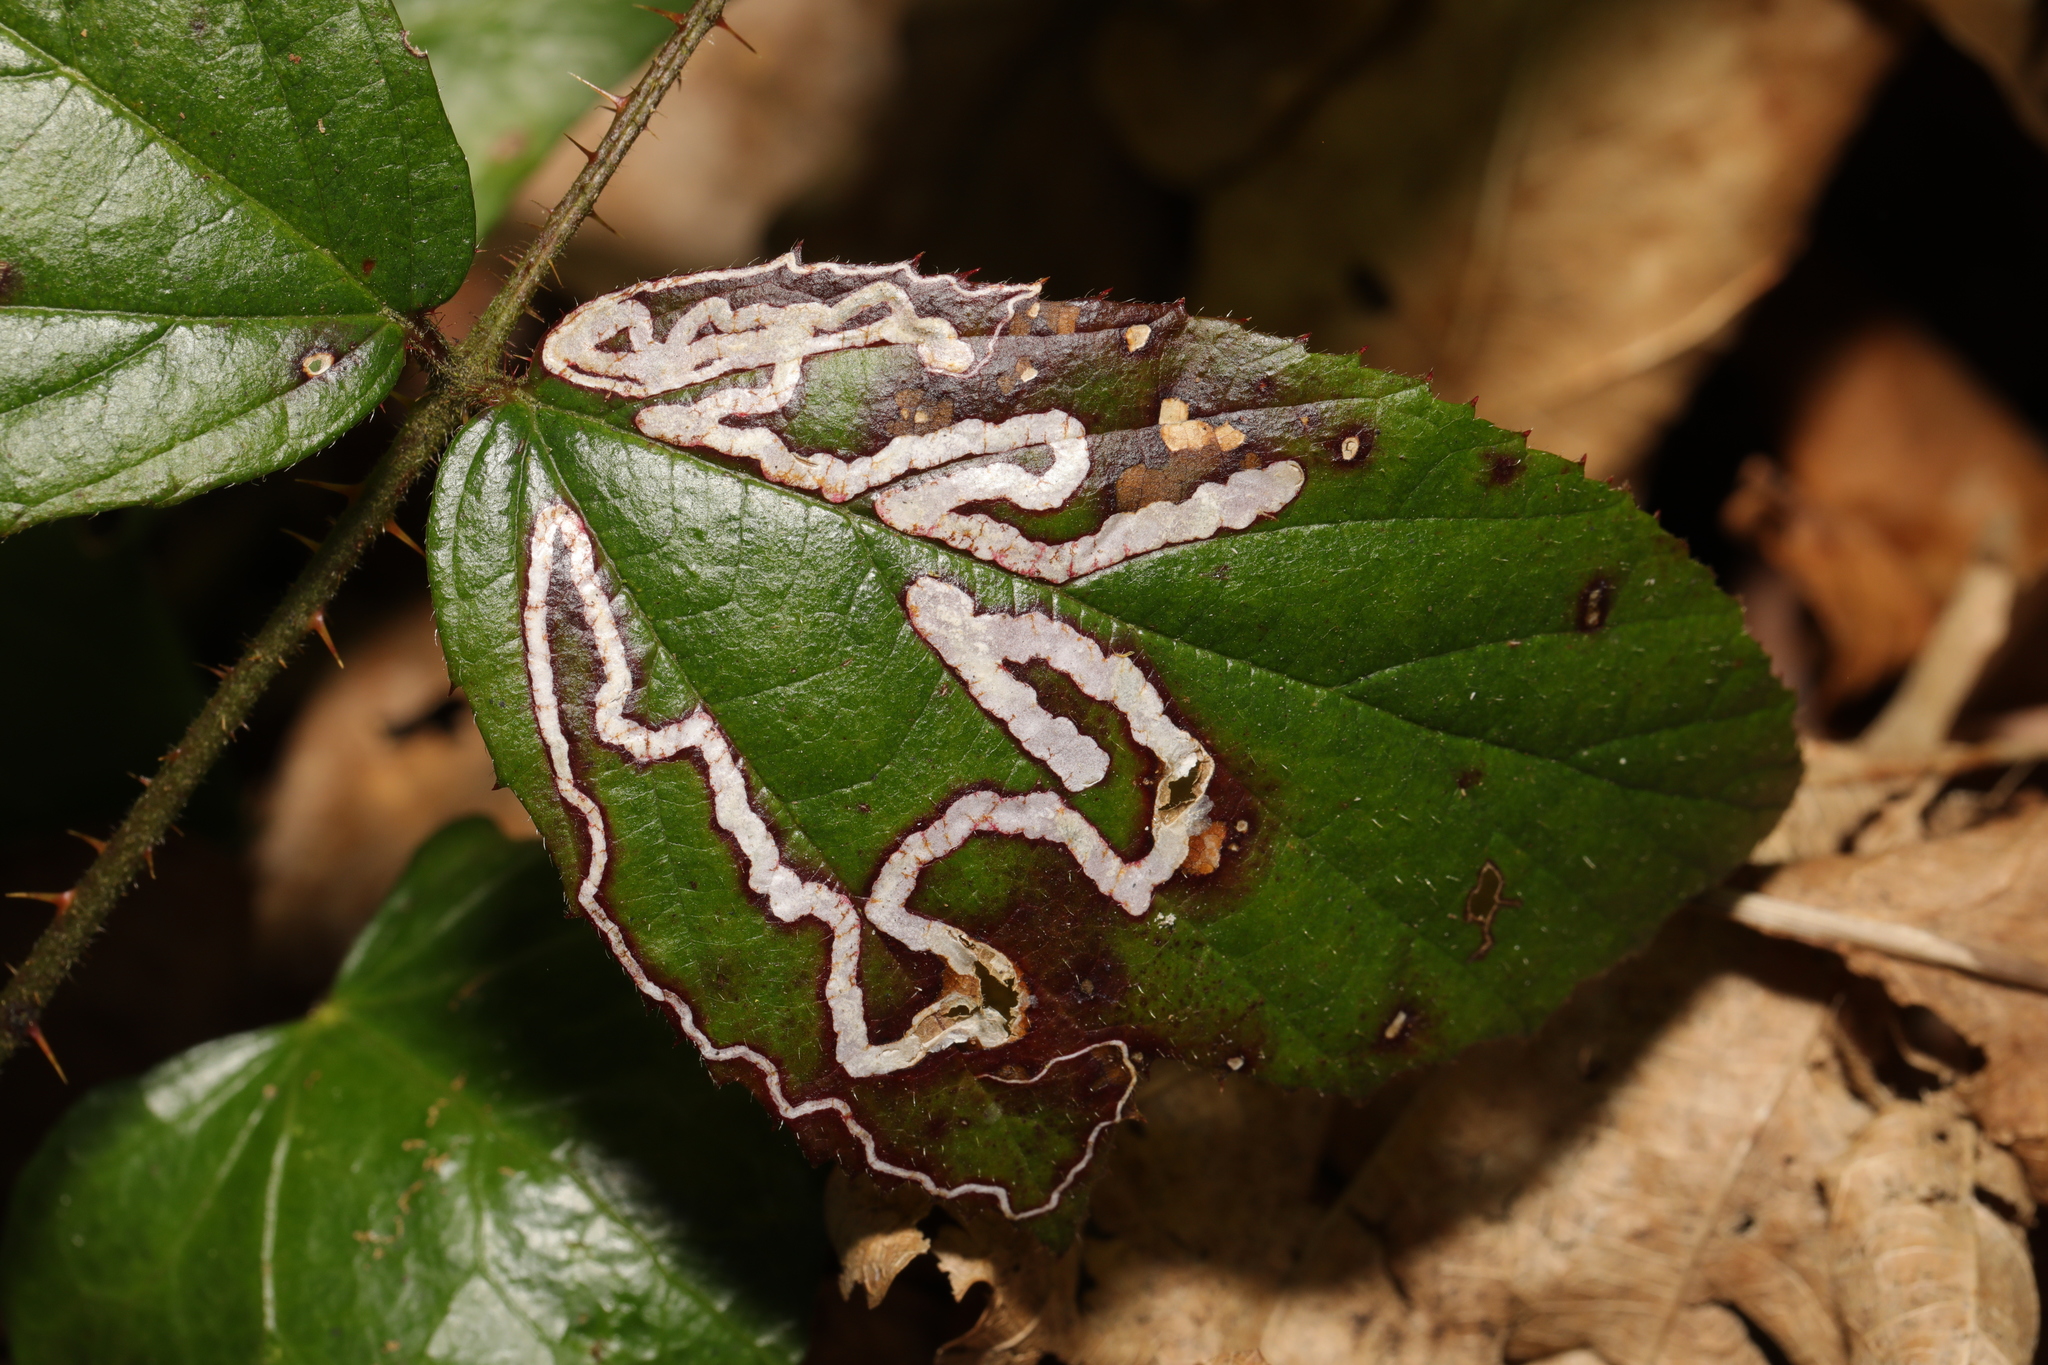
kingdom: Animalia
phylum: Arthropoda
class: Insecta
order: Lepidoptera
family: Nepticulidae
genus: Stigmella
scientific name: Stigmella aurella
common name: Golden pigmy
